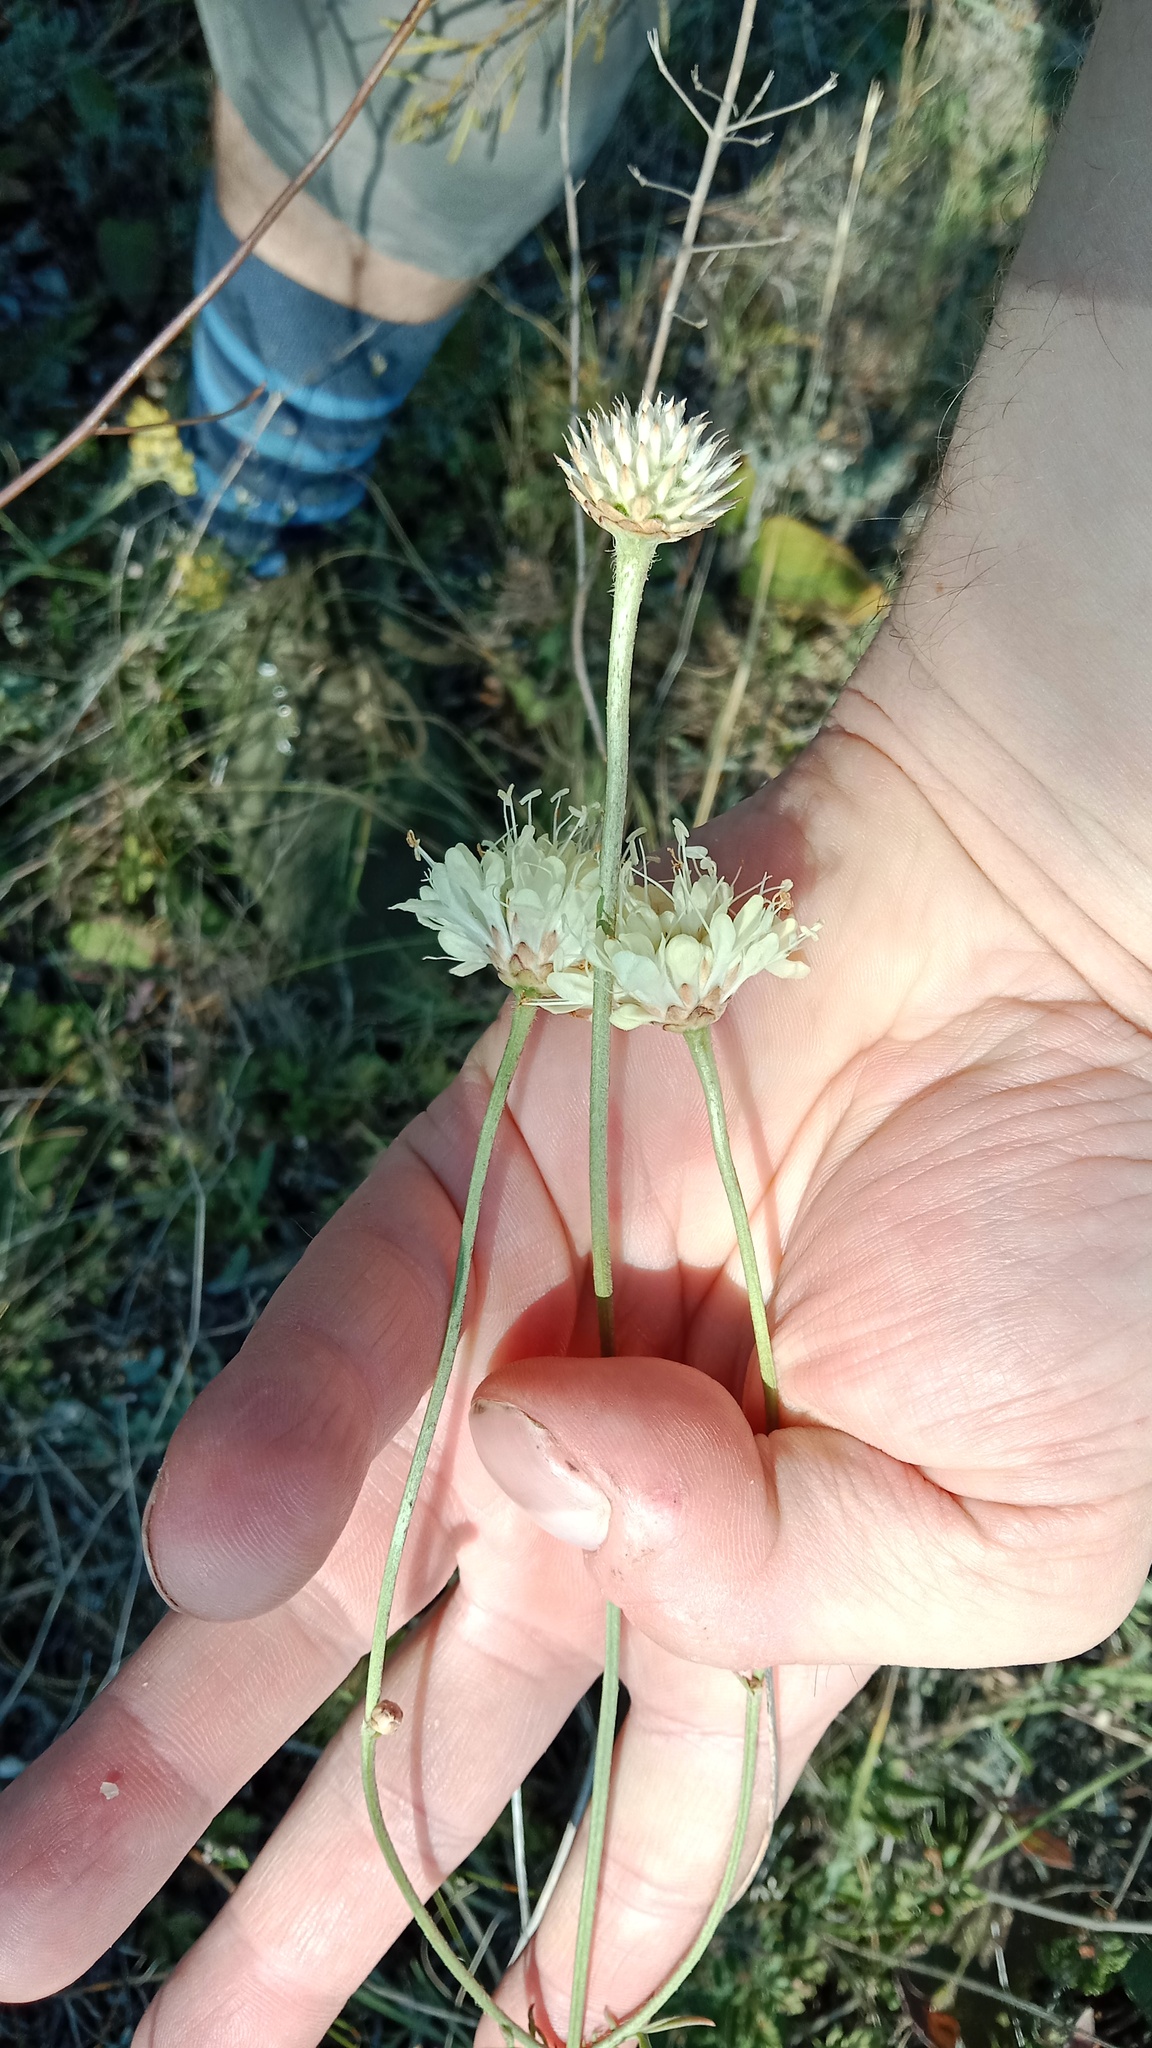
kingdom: Plantae
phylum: Tracheophyta
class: Magnoliopsida
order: Dipsacales
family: Caprifoliaceae
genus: Scabiosa
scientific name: Scabiosa ochroleuca
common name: Cream pincushions
